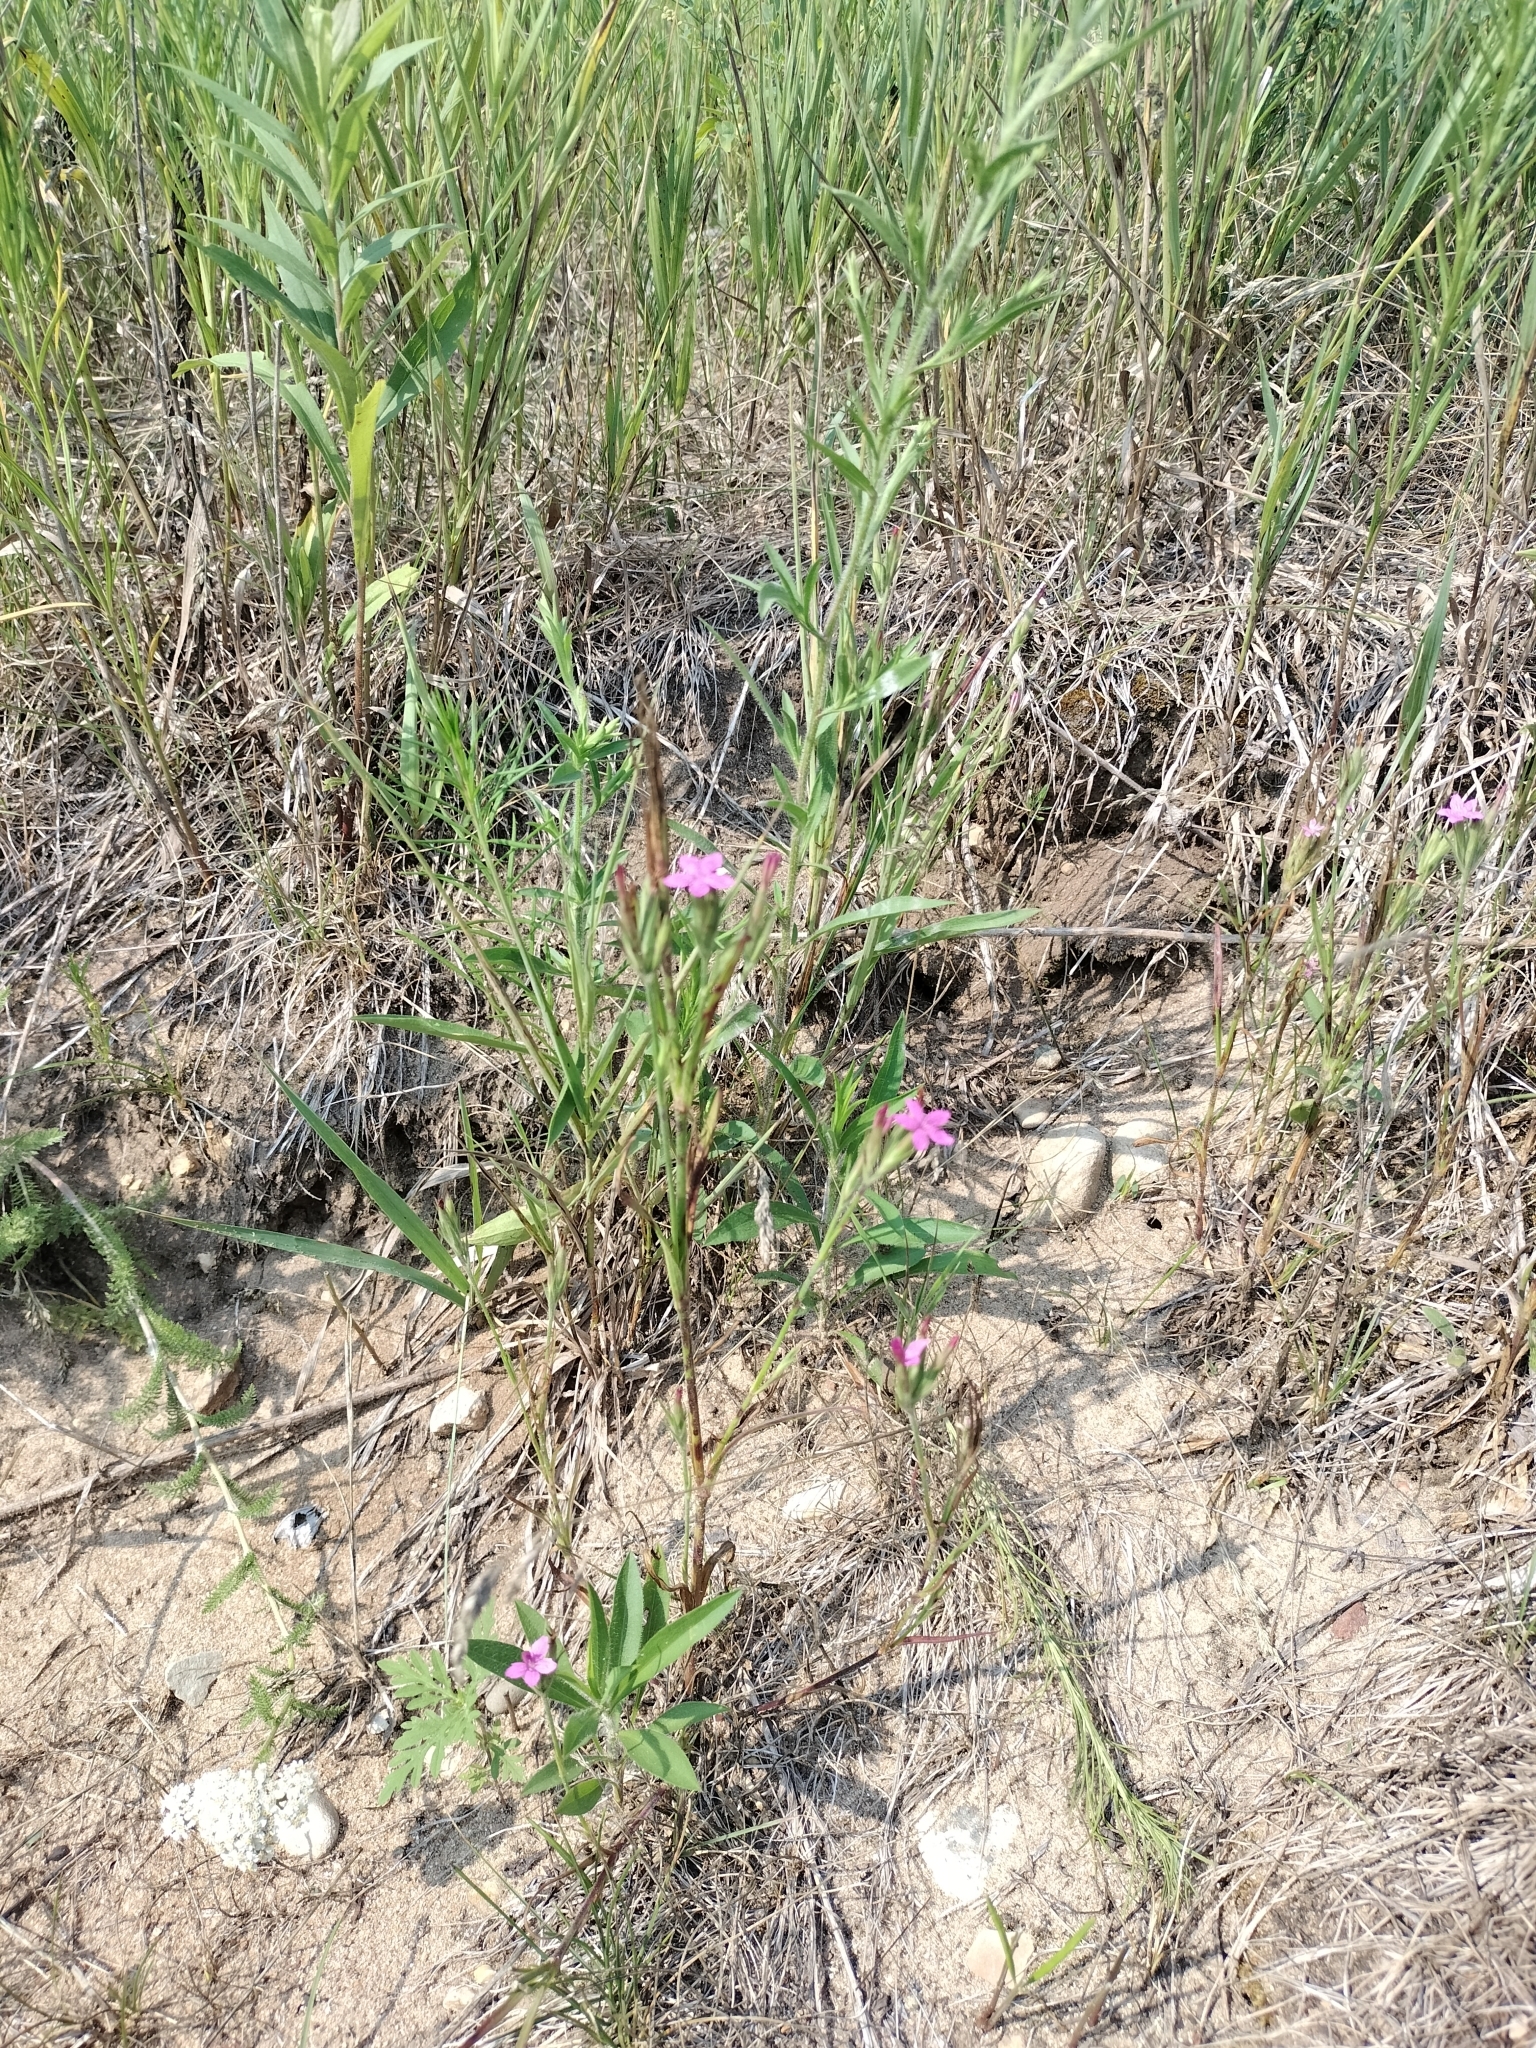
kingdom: Plantae
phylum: Tracheophyta
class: Magnoliopsida
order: Caryophyllales
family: Caryophyllaceae
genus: Dianthus
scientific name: Dianthus armeria
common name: Deptford pink
